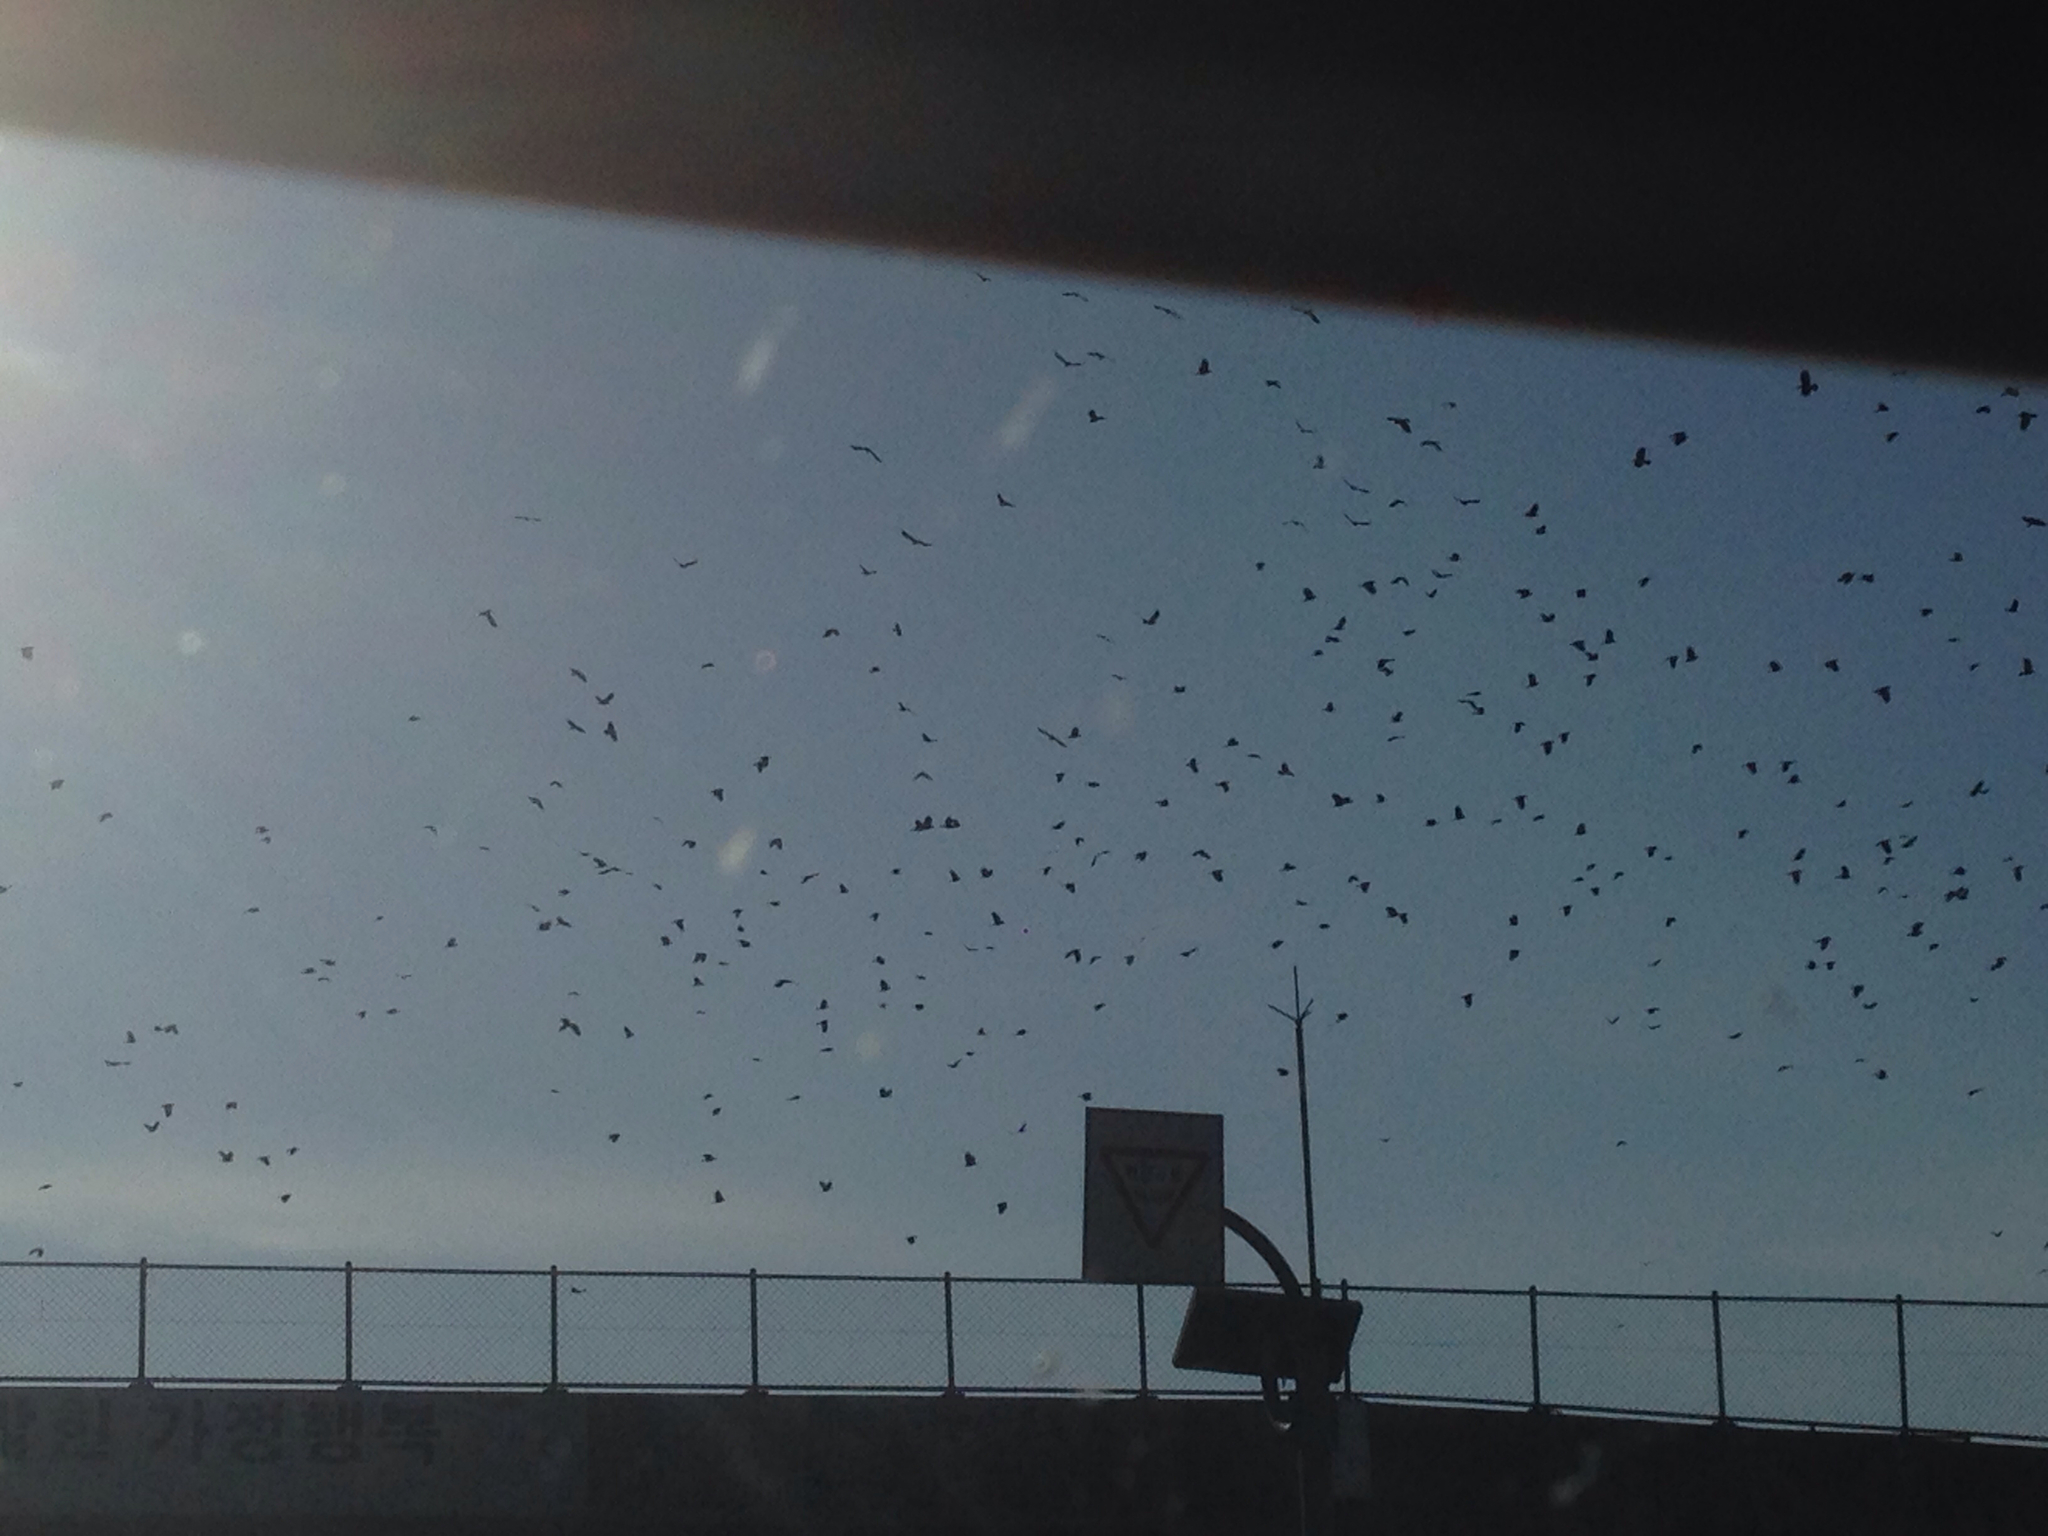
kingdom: Animalia
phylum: Chordata
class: Aves
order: Passeriformes
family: Corvidae
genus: Corvus
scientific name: Corvus frugilegus
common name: Rook
